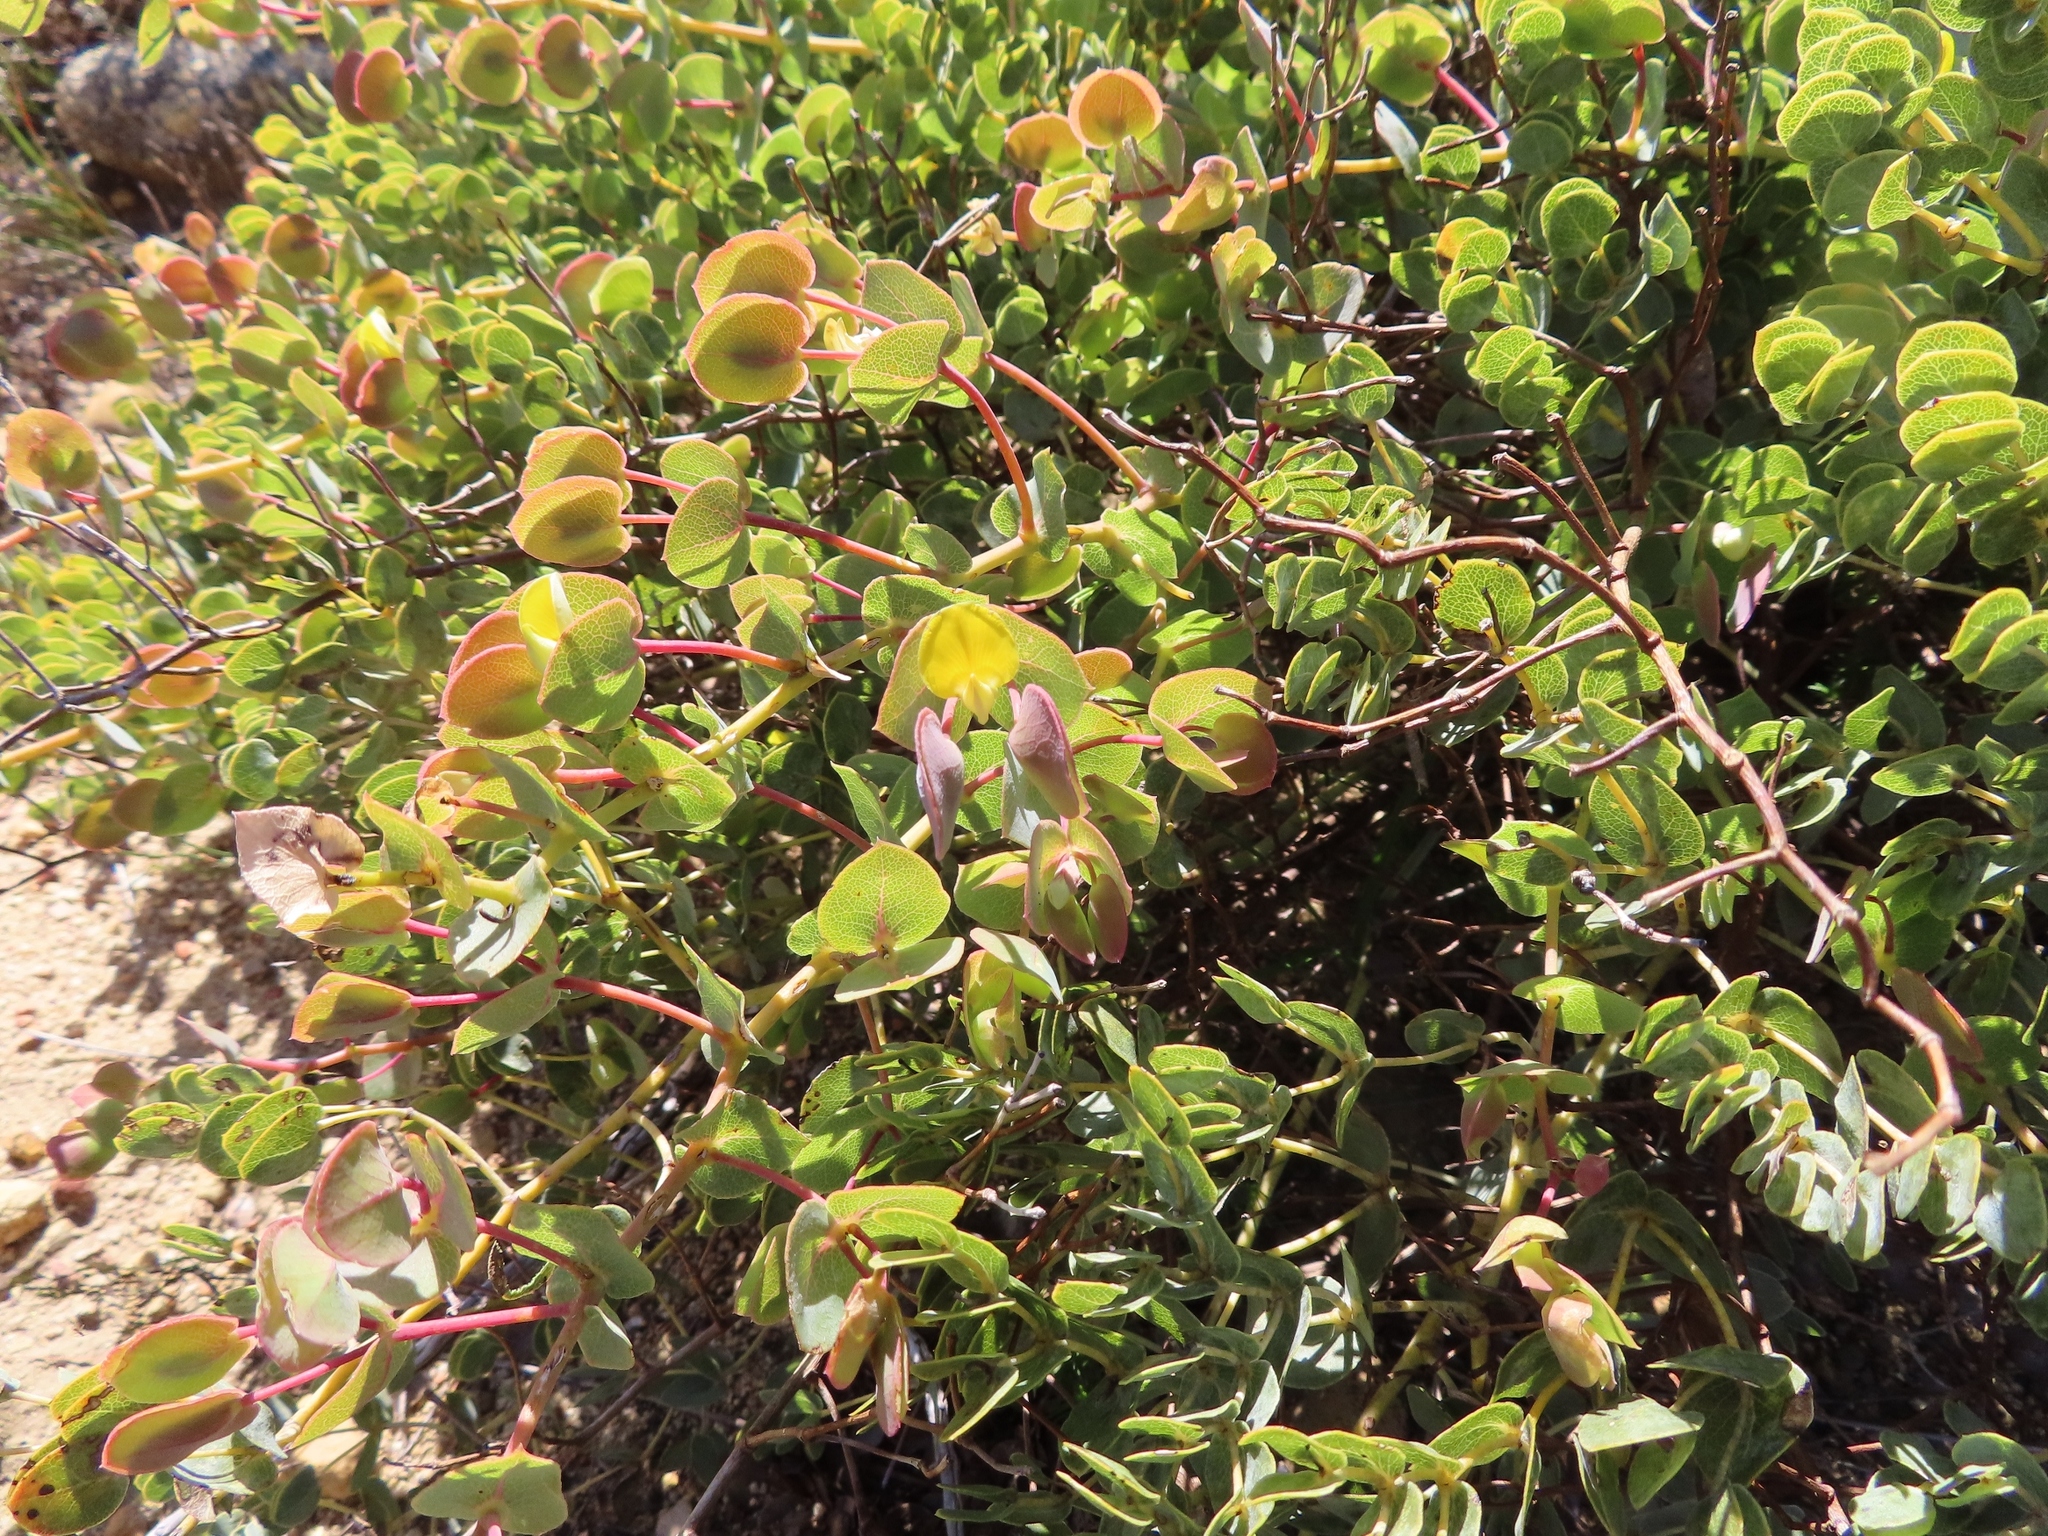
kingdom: Plantae
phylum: Tracheophyta
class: Magnoliopsida
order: Fabales
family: Fabaceae
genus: Rafnia
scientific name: Rafnia acuminata
